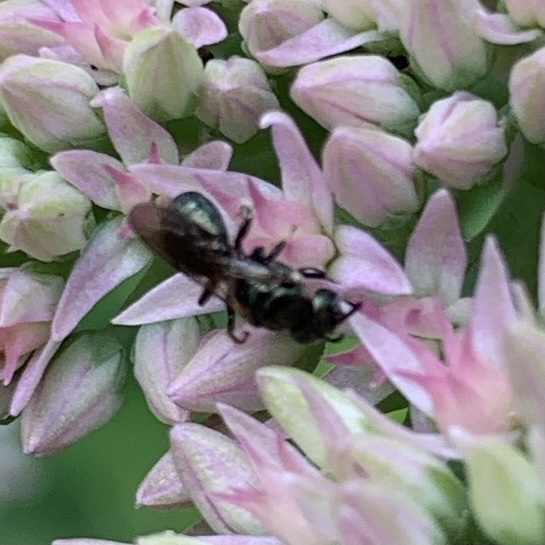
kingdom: Animalia
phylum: Arthropoda
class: Insecta
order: Hymenoptera
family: Apidae
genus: Zadontomerus
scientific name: Zadontomerus
